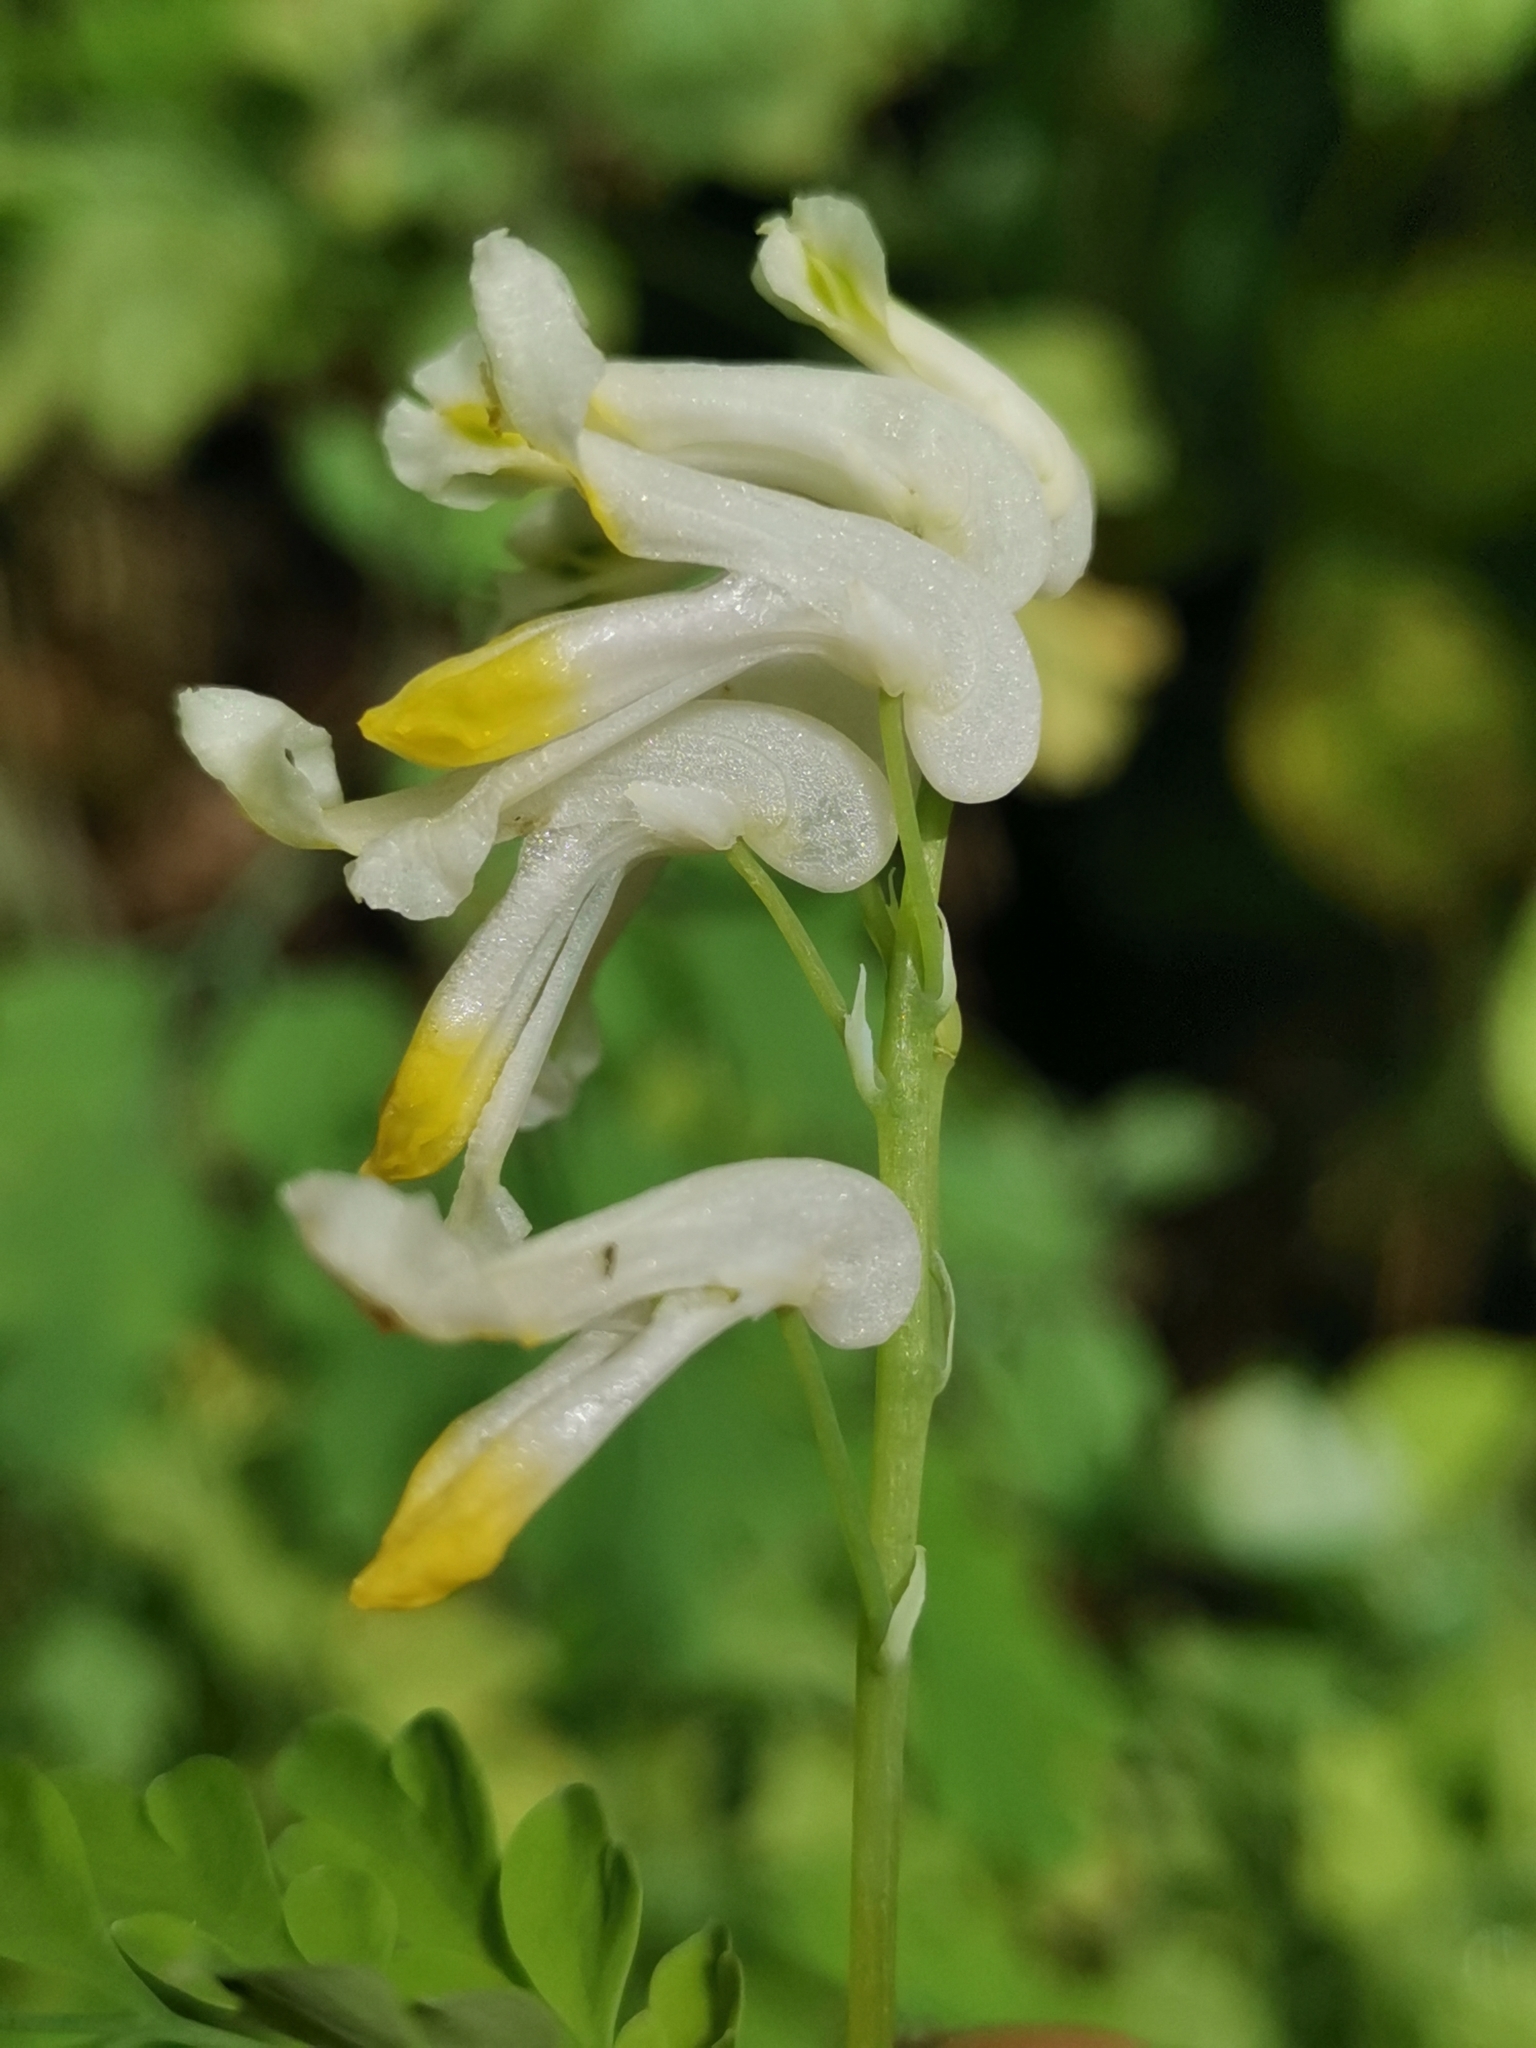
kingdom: Plantae
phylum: Tracheophyta
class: Magnoliopsida
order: Ranunculales
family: Papaveraceae
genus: Pseudofumaria
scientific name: Pseudofumaria alba
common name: Pale corydalis
